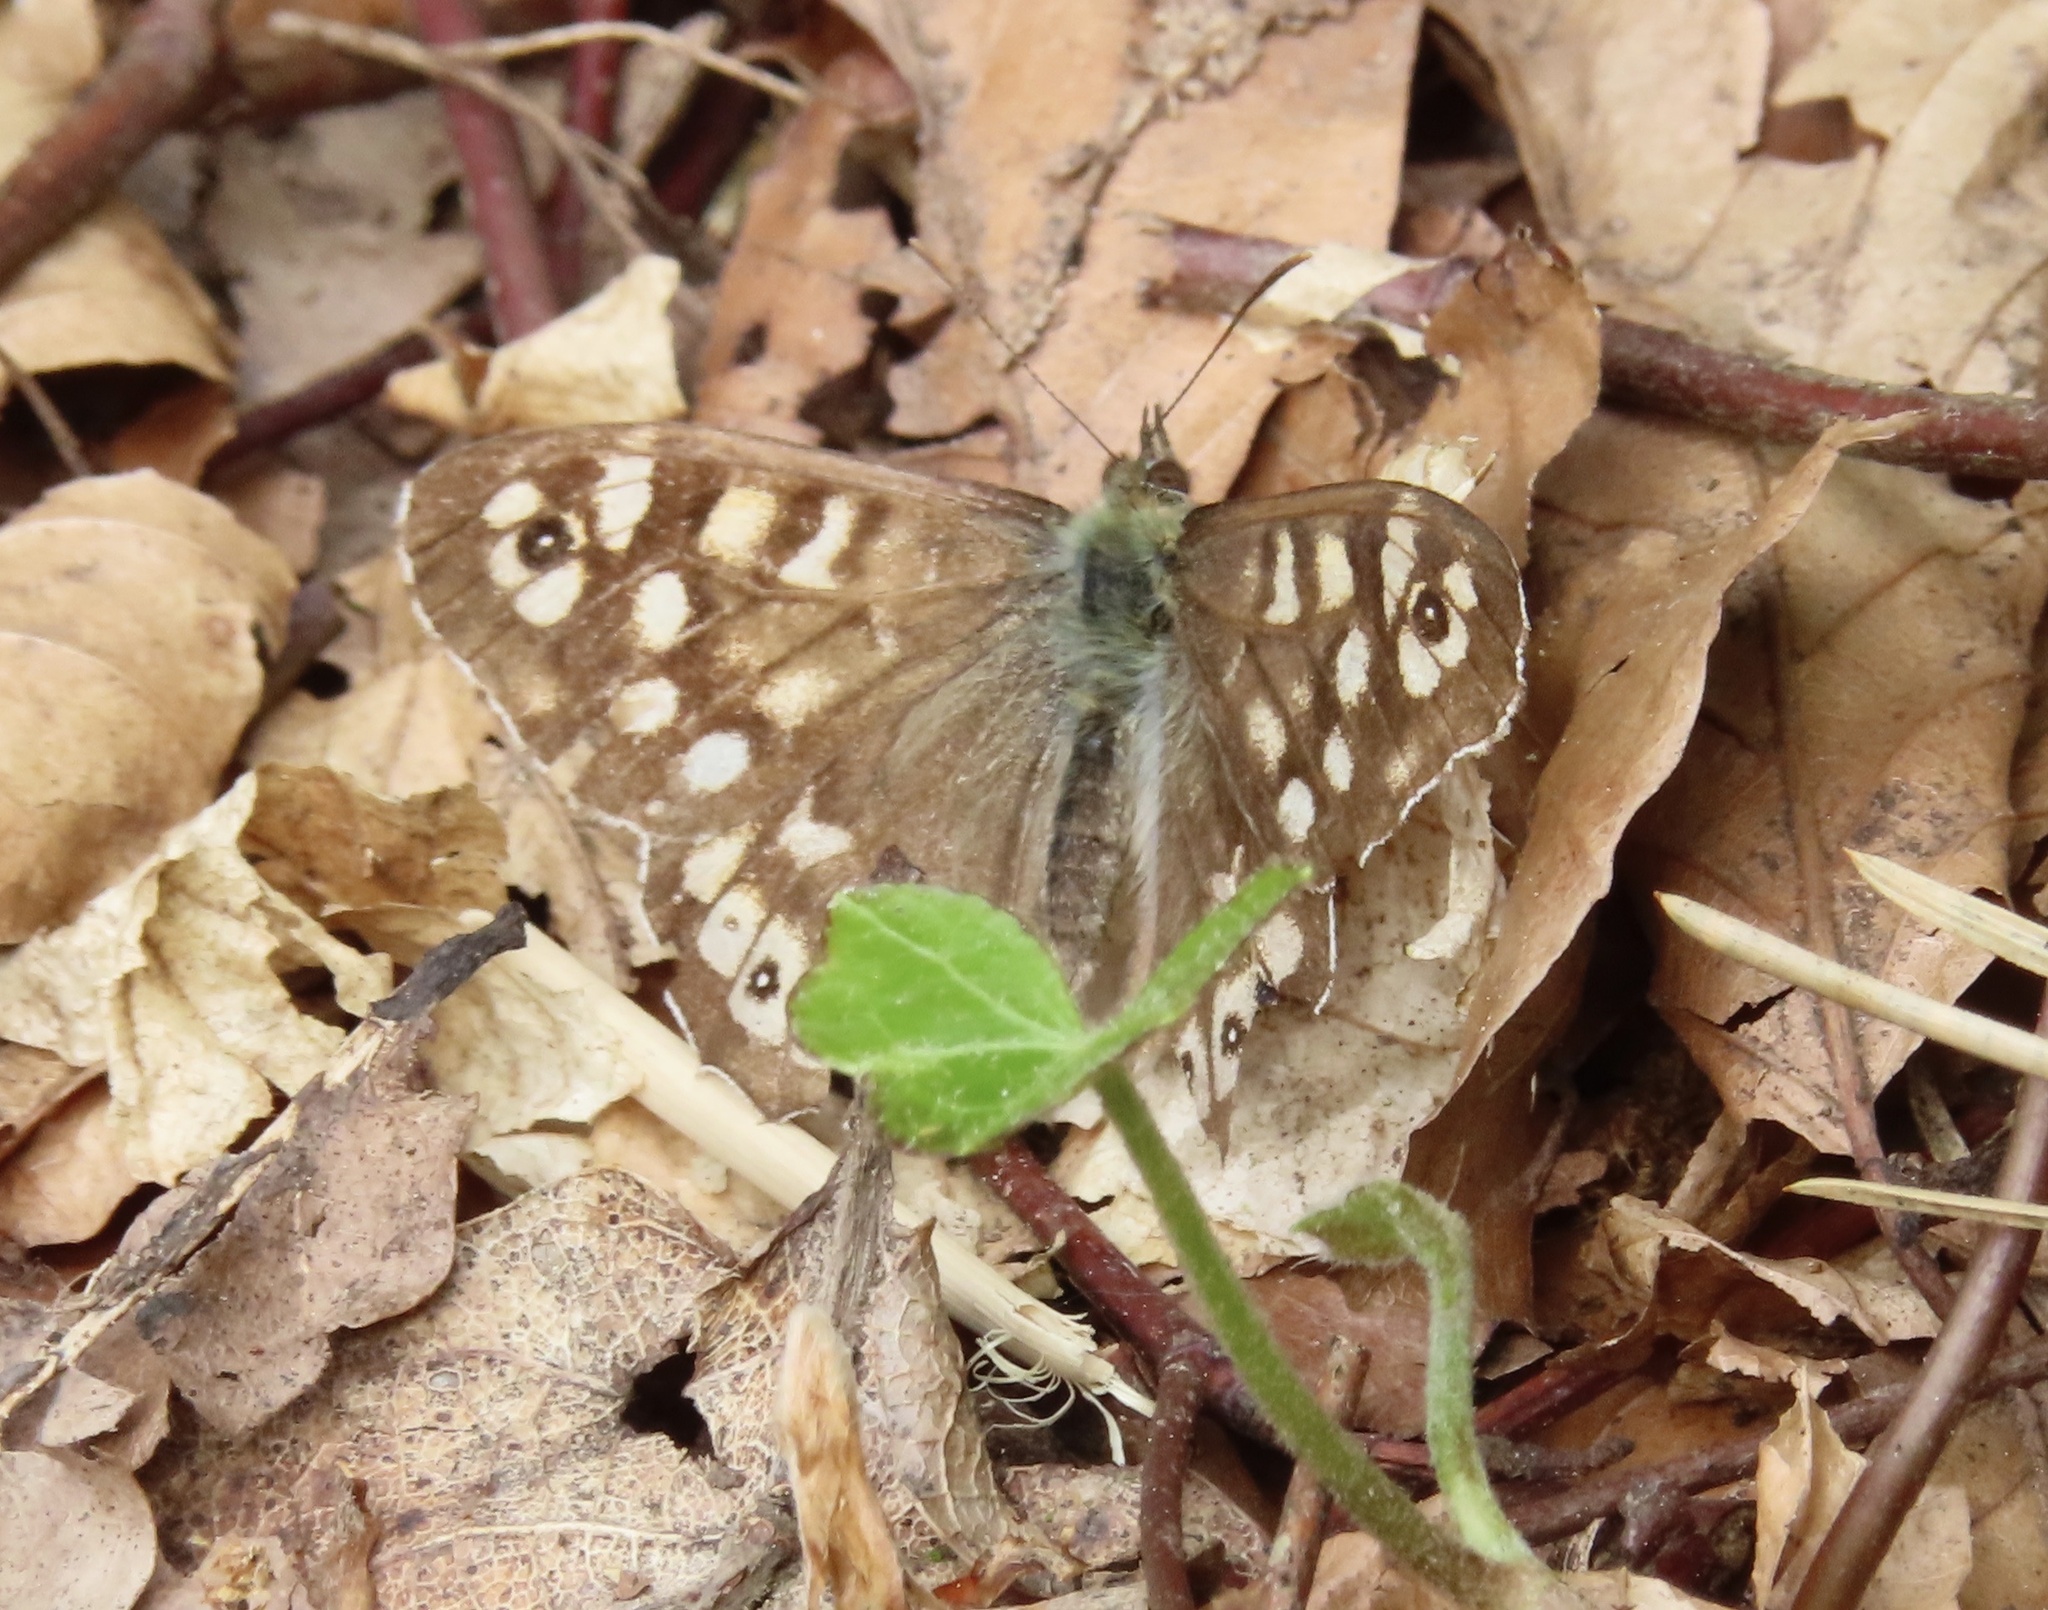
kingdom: Animalia
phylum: Arthropoda
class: Insecta
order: Lepidoptera
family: Nymphalidae
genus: Pararge
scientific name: Pararge aegeria
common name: Speckled wood
